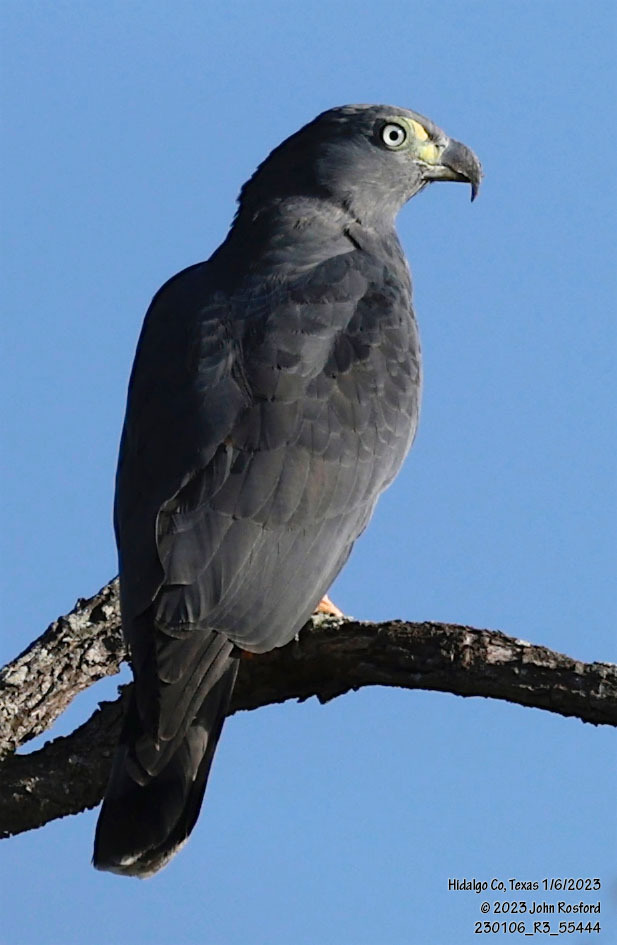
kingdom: Animalia
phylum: Chordata
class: Aves
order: Accipitriformes
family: Accipitridae
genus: Chondrohierax
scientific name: Chondrohierax uncinatus
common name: Hook-billed kite
